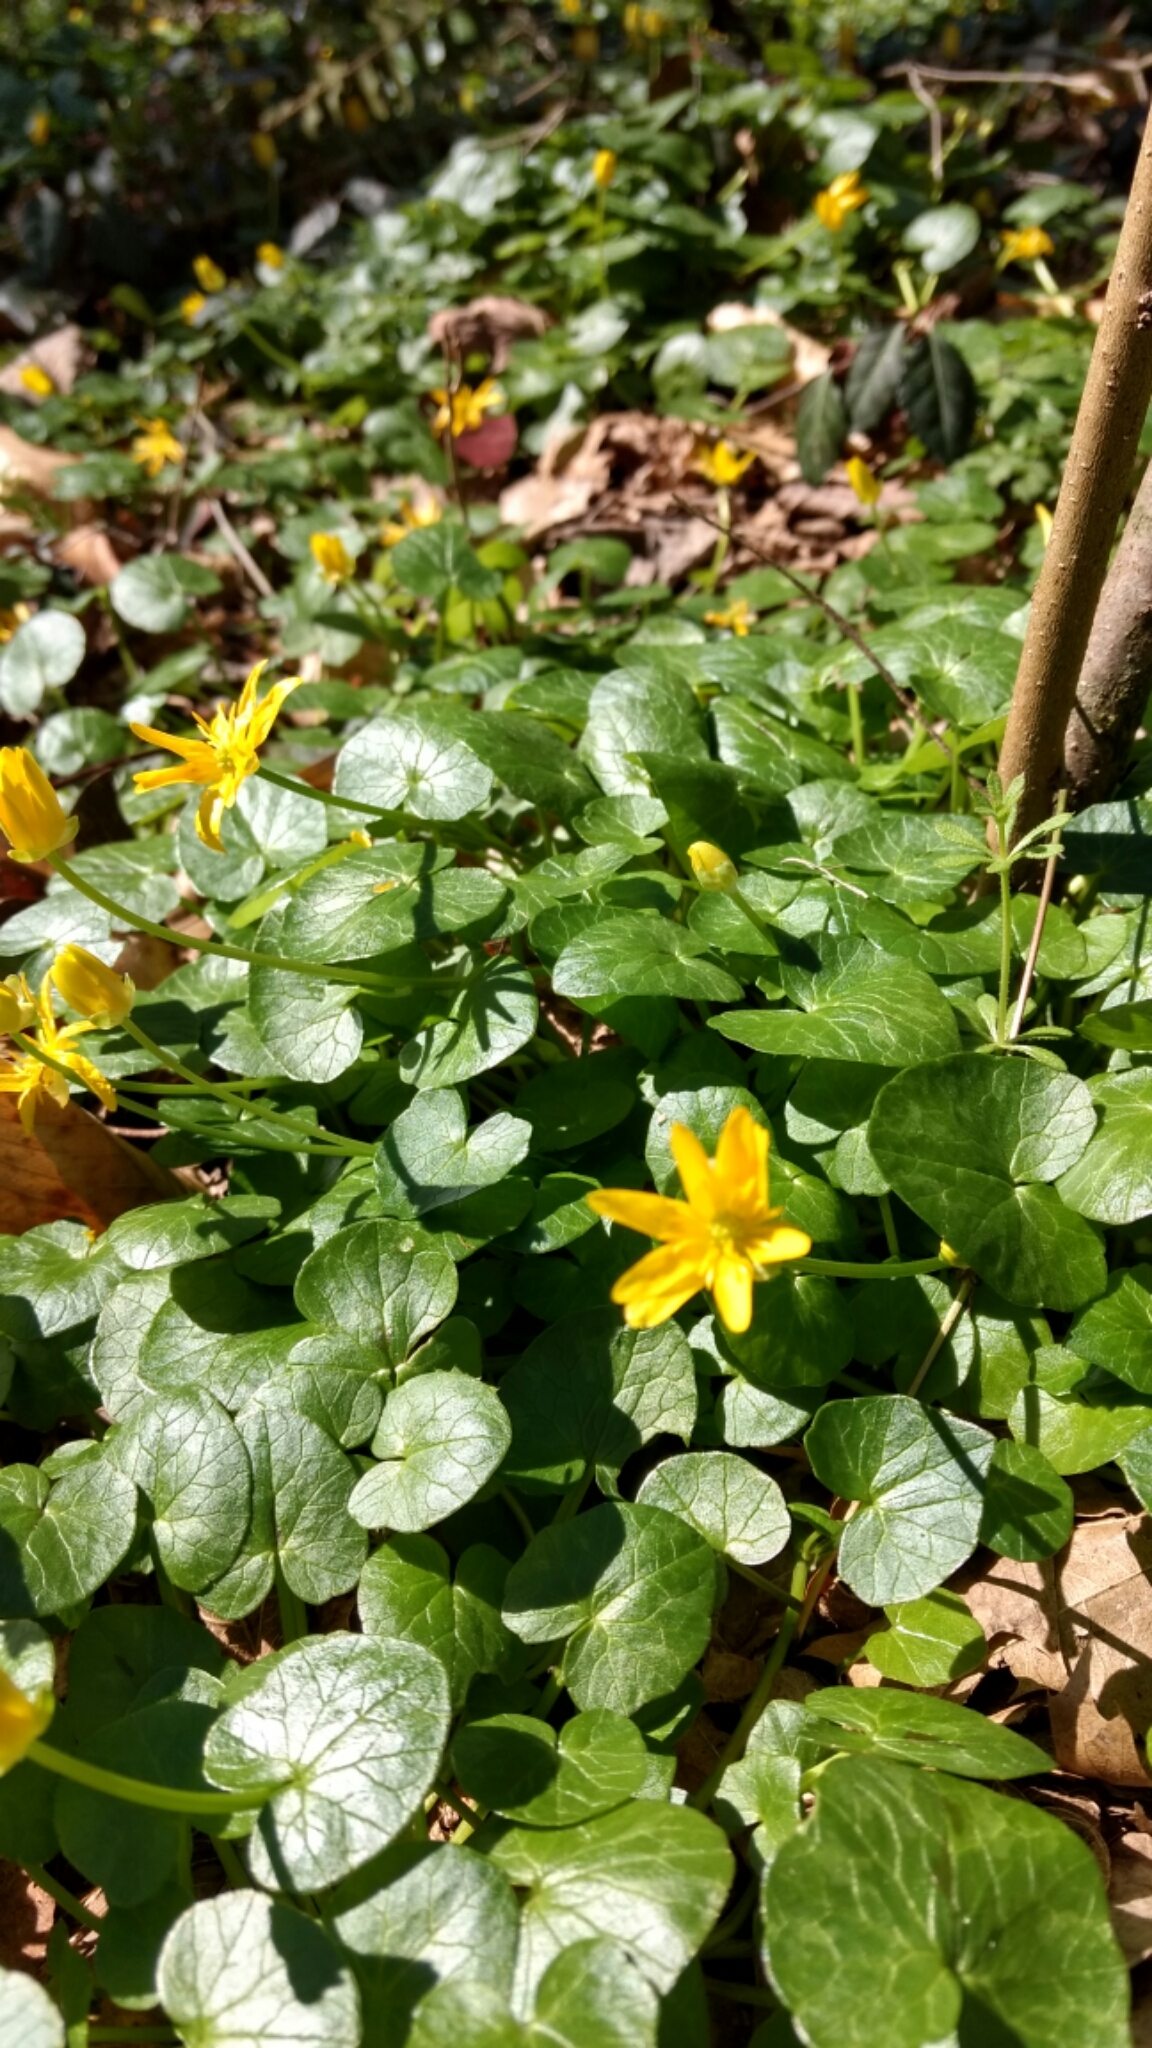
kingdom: Plantae
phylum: Tracheophyta
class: Magnoliopsida
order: Ranunculales
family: Ranunculaceae
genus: Ficaria
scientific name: Ficaria verna
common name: Lesser celandine
